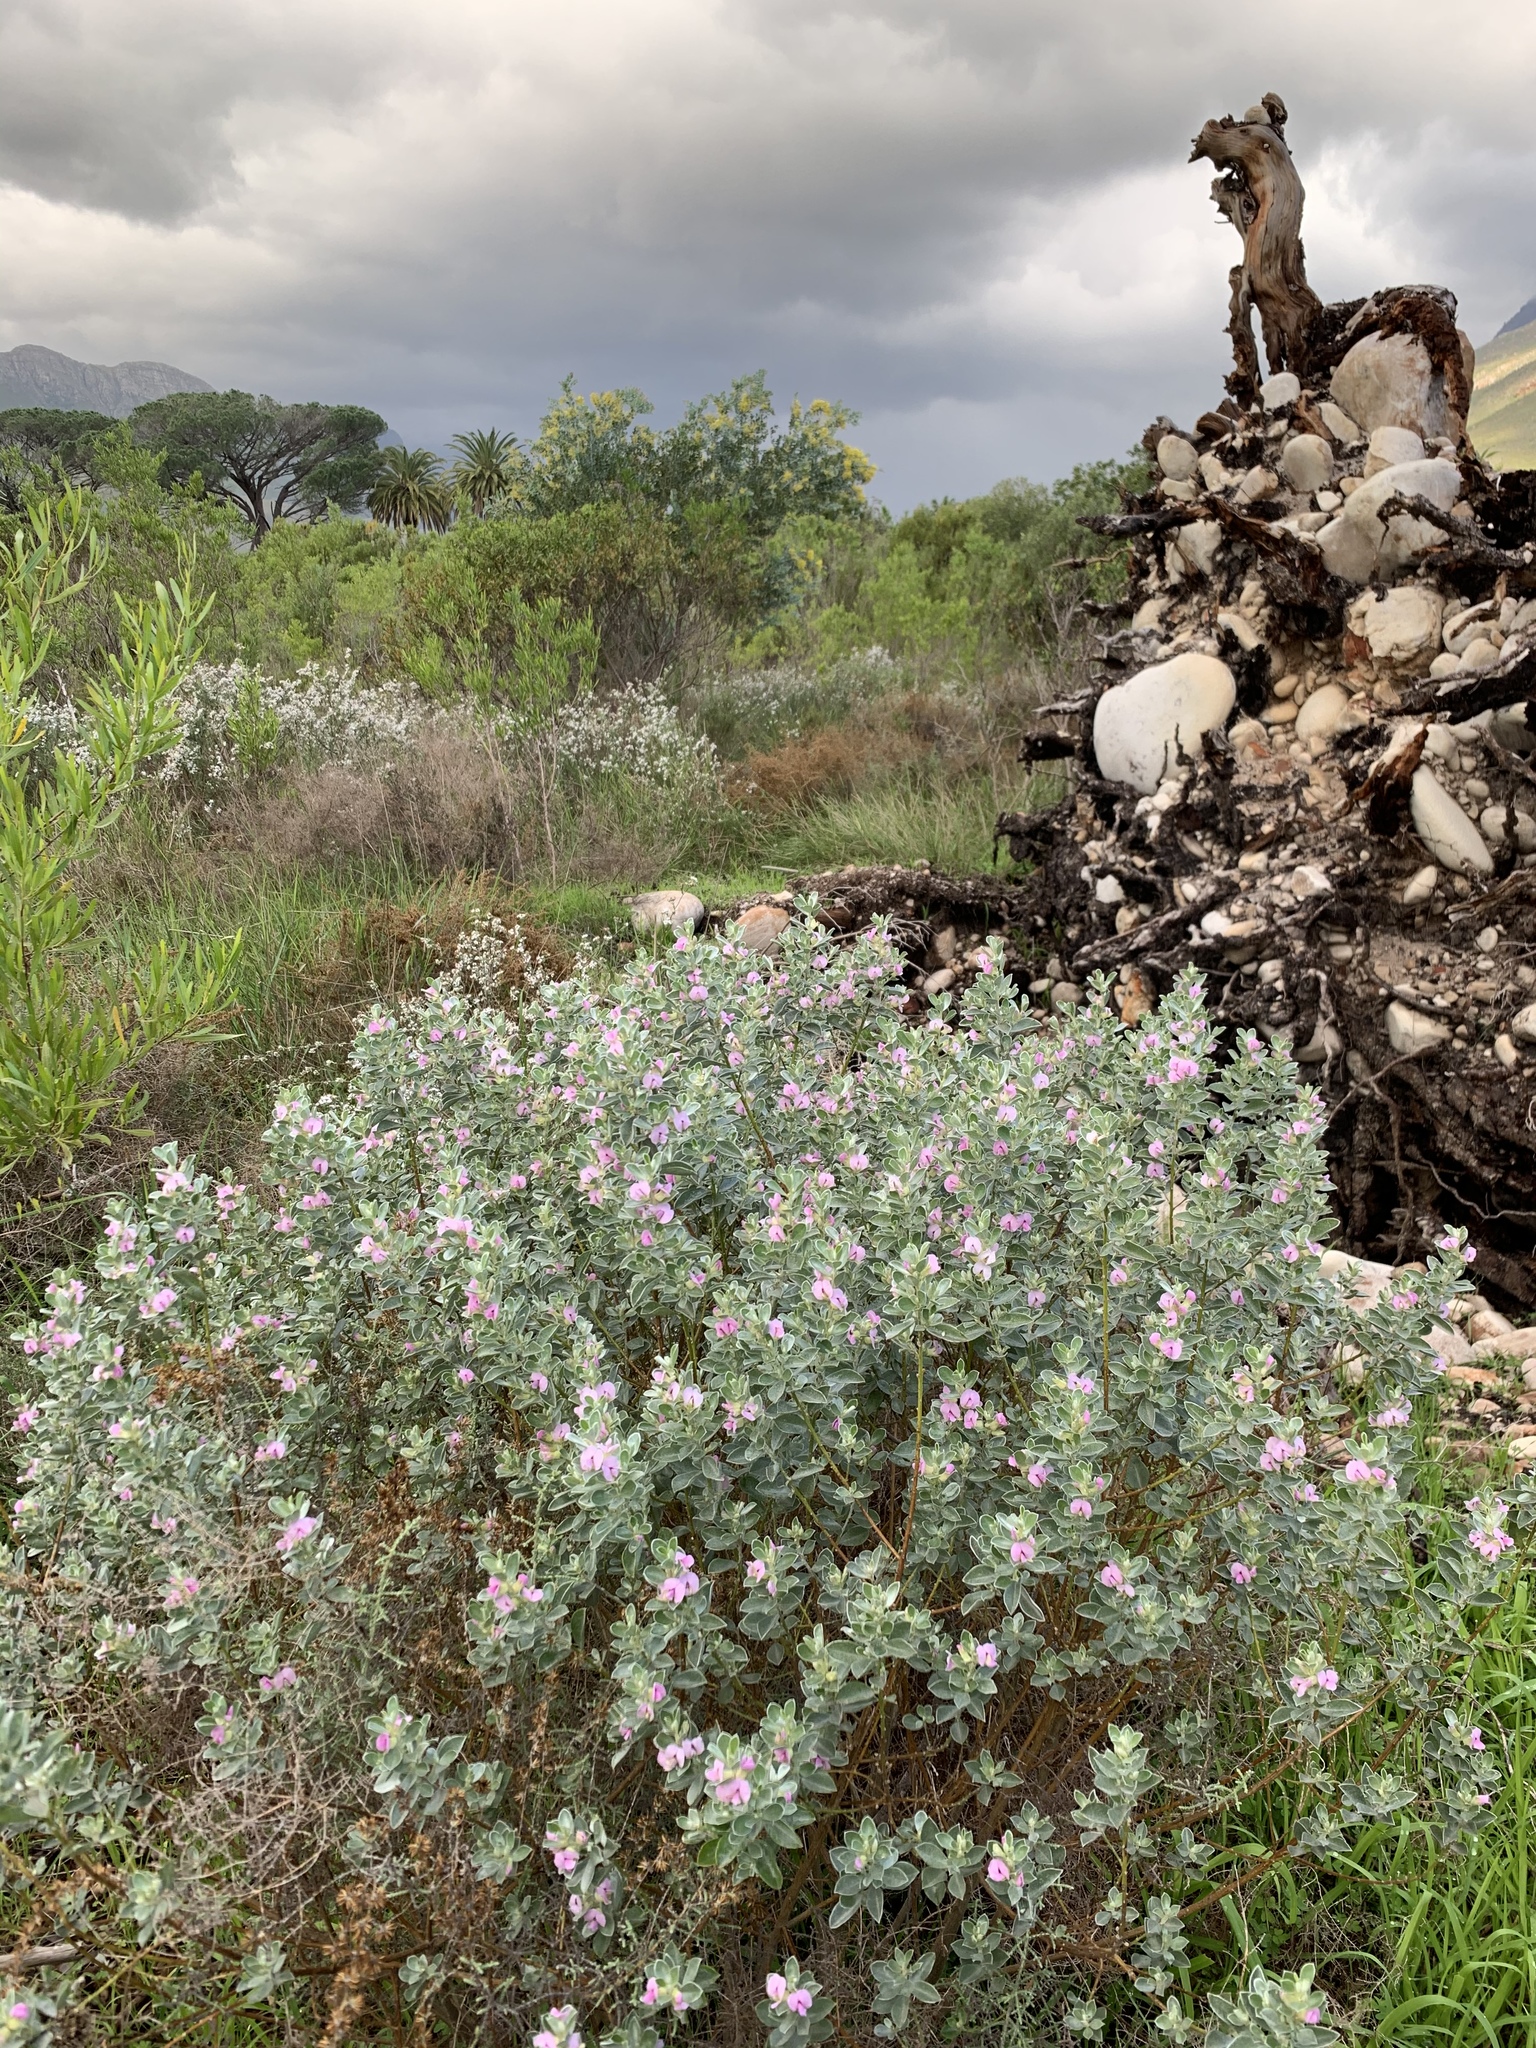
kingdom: Plantae
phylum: Tracheophyta
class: Magnoliopsida
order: Fabales
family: Fabaceae
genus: Podalyria
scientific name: Podalyria sericea
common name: Silver podalyria
